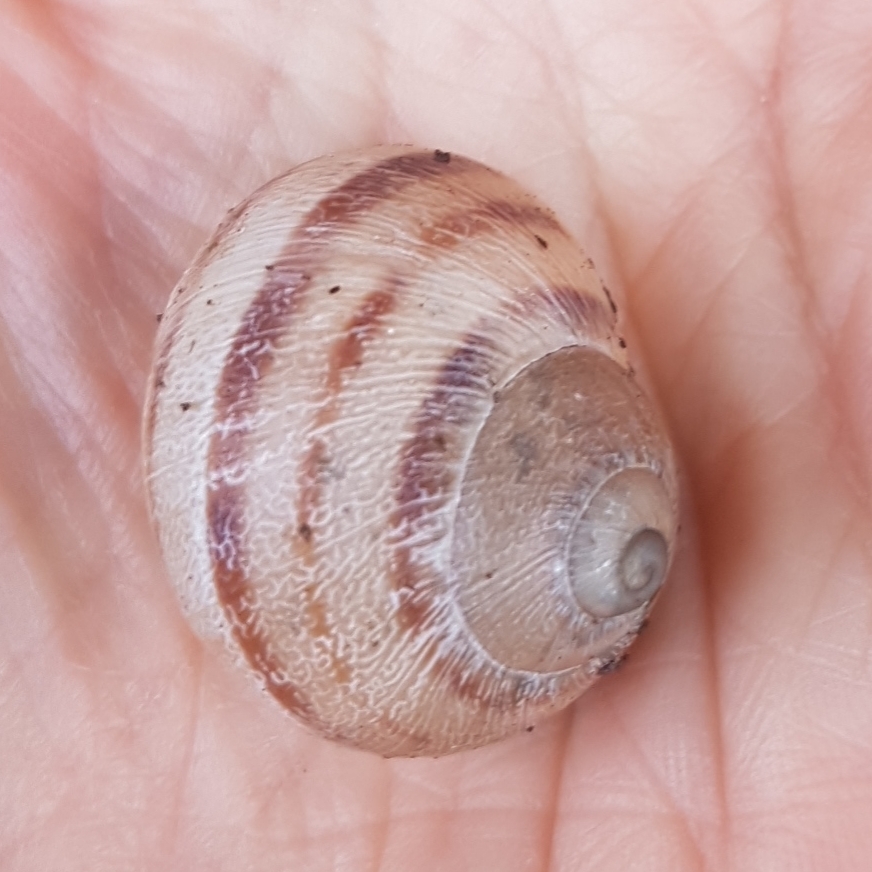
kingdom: Animalia
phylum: Mollusca
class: Gastropoda
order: Stylommatophora
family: Helicidae
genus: Cornu
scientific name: Cornu aspersum
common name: Brown garden snail
